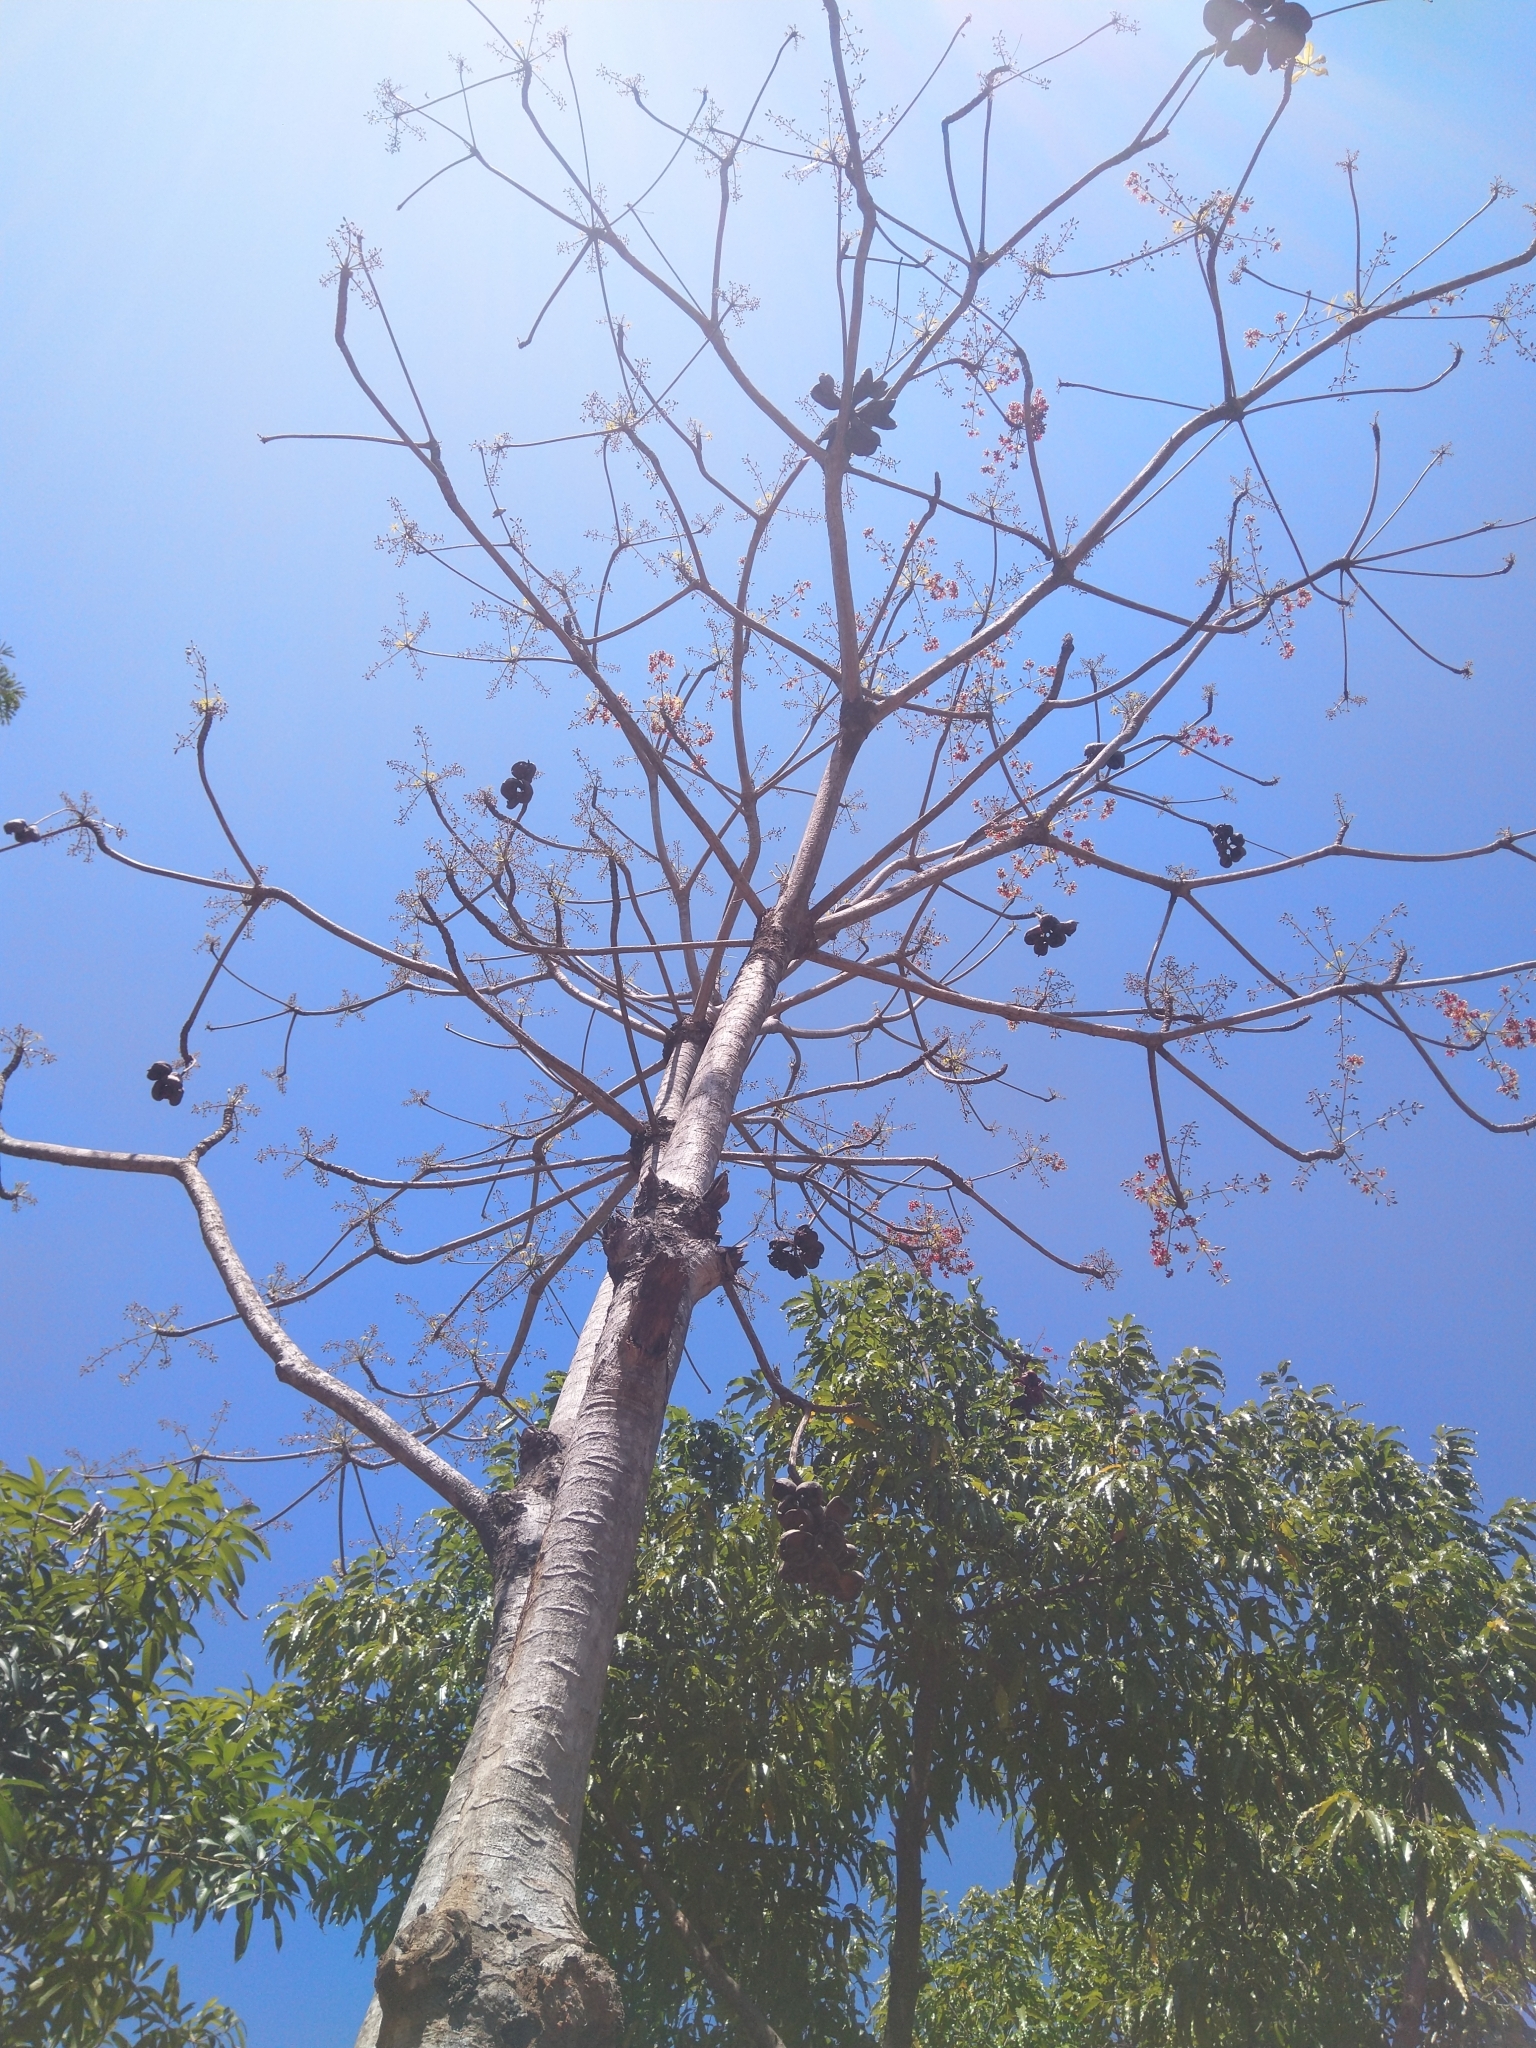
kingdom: Plantae
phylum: Tracheophyta
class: Magnoliopsida
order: Malvales
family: Malvaceae
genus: Sterculia
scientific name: Sterculia foetida
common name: Hazel sterculia
